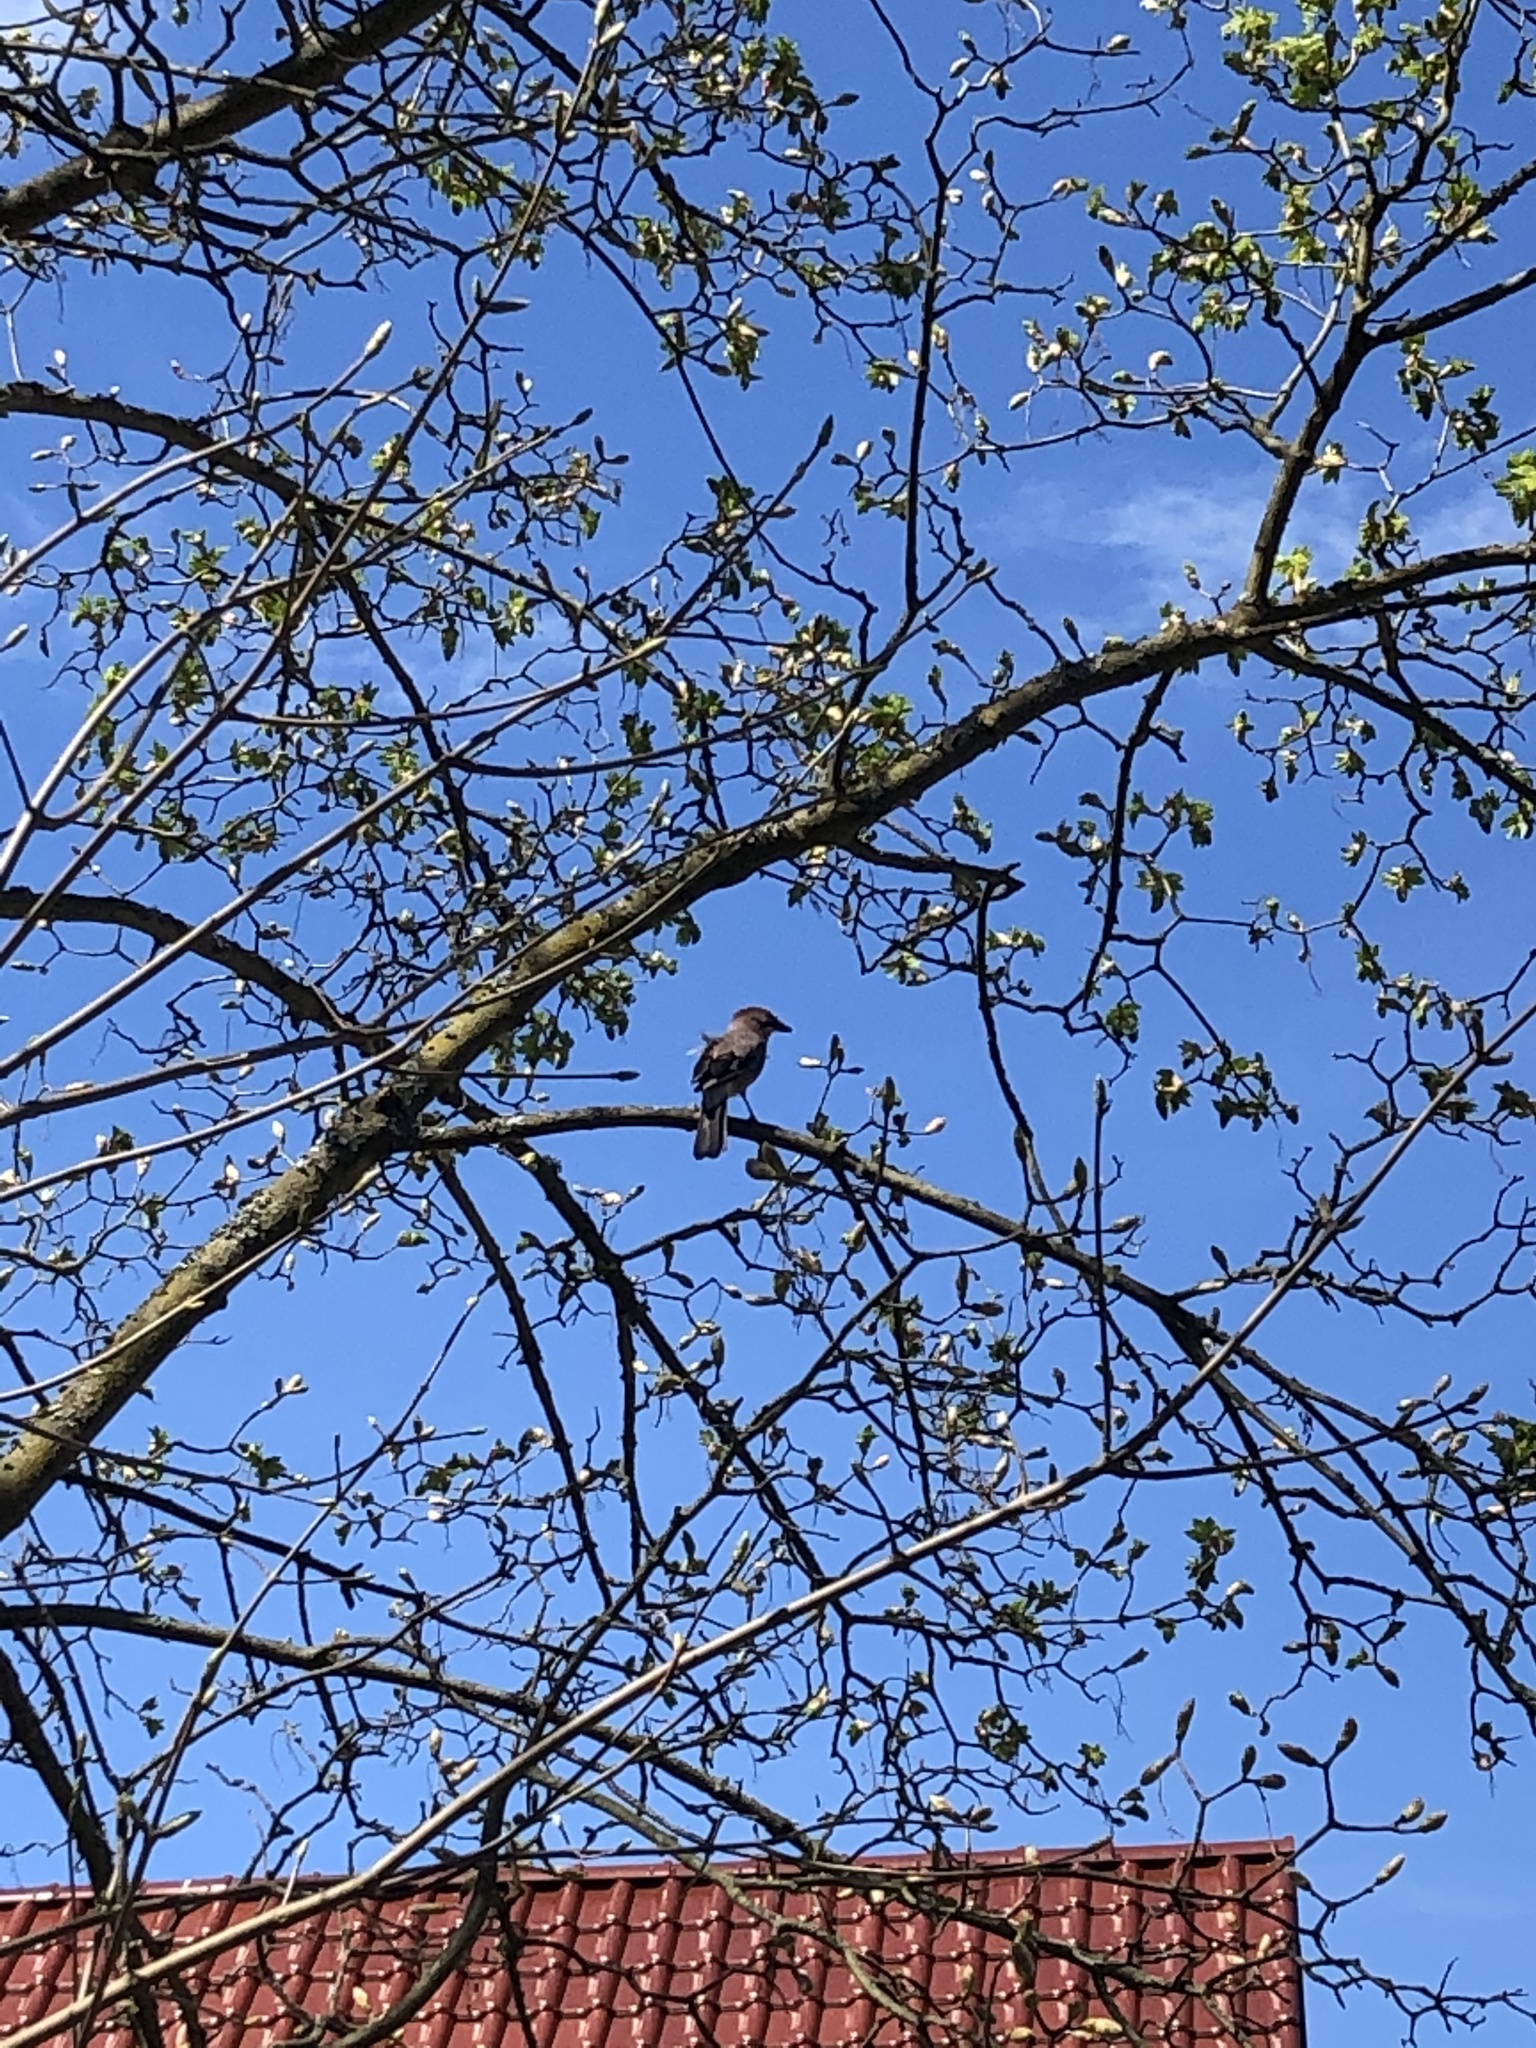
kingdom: Animalia
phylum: Chordata
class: Aves
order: Passeriformes
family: Corvidae
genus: Garrulus
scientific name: Garrulus glandarius
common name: Eurasian jay
